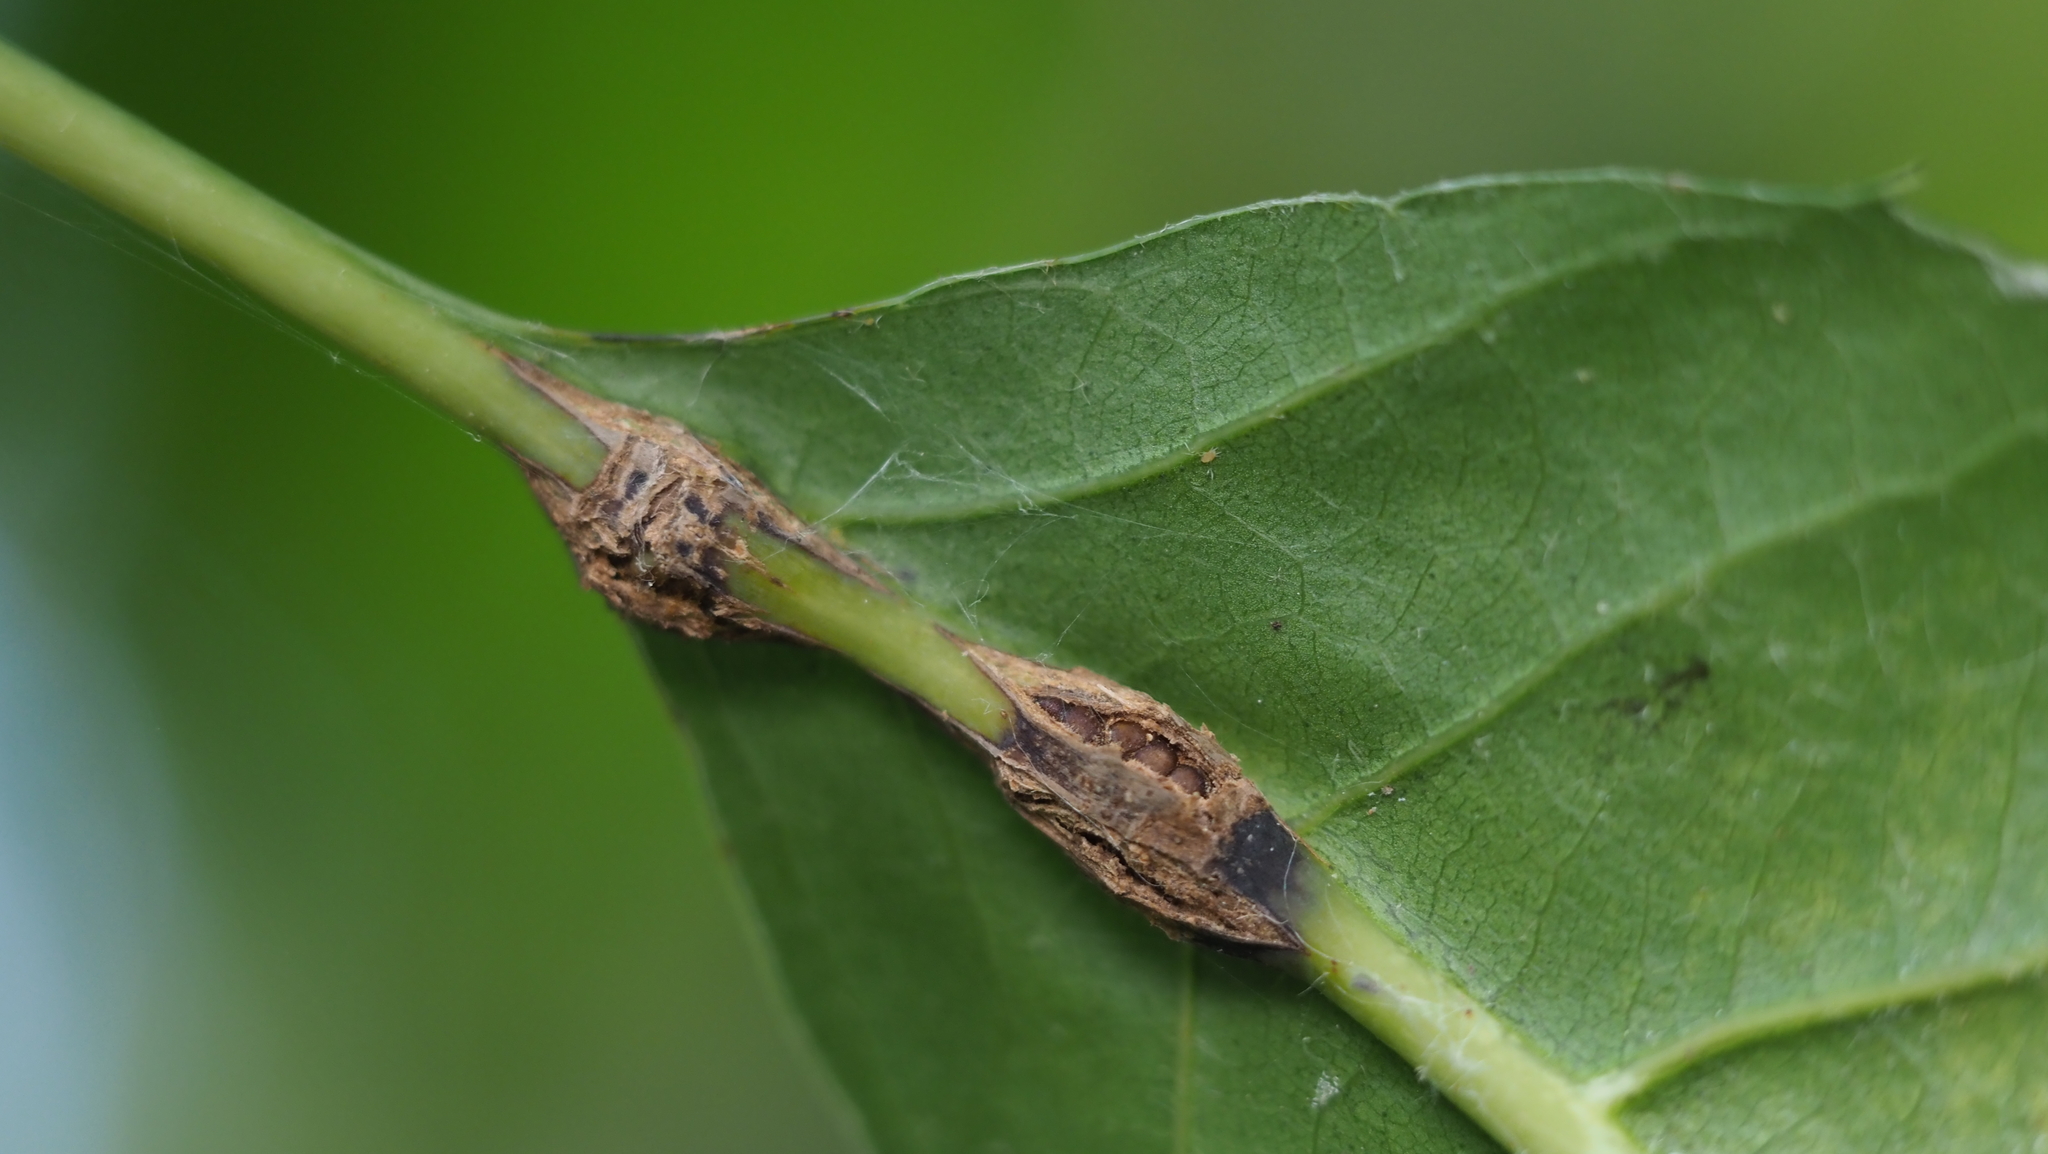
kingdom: Animalia
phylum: Arthropoda
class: Insecta
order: Hymenoptera
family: Cynipidae
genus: Kokkocynips
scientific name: Kokkocynips decidua
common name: Oak wheat gall
